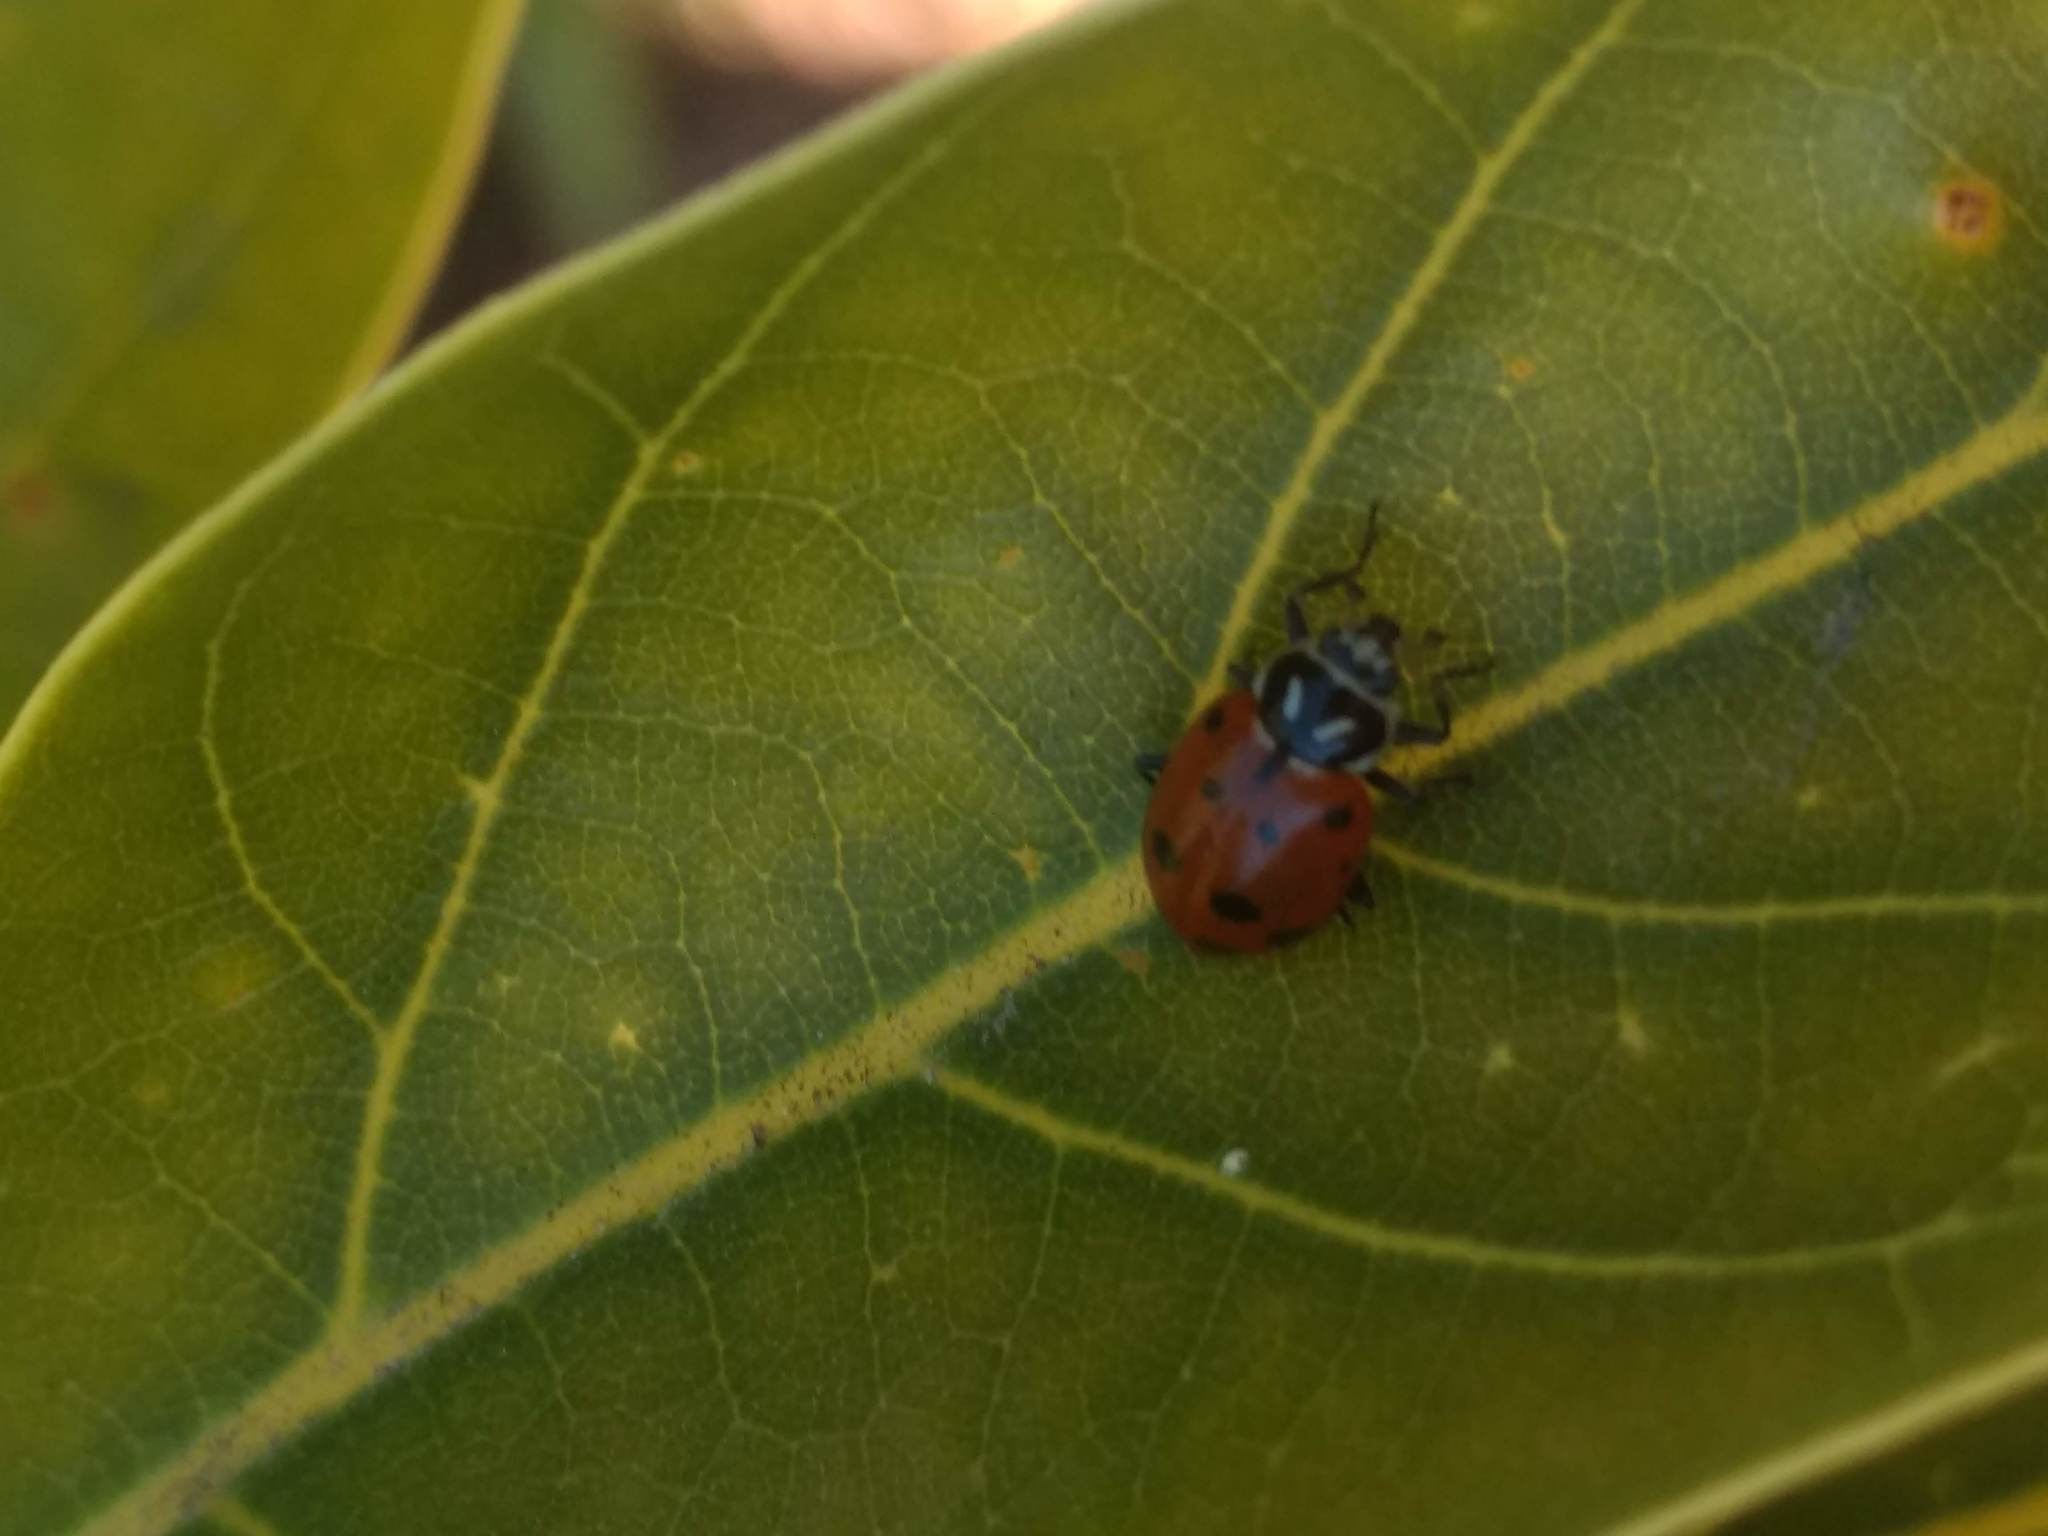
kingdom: Animalia
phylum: Arthropoda
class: Insecta
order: Coleoptera
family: Coccinellidae
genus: Hippodamia
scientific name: Hippodamia convergens
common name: Convergent lady beetle
